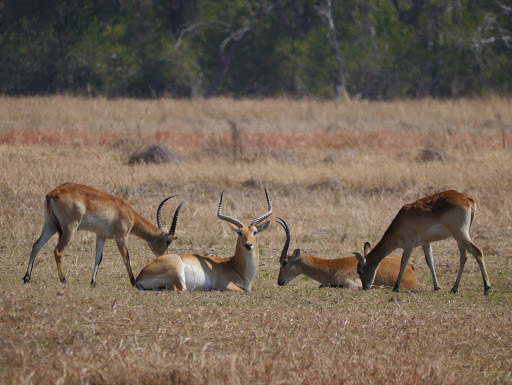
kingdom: Animalia
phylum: Chordata
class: Mammalia
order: Artiodactyla
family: Bovidae
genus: Kobus
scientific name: Kobus leche
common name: Lechwe
